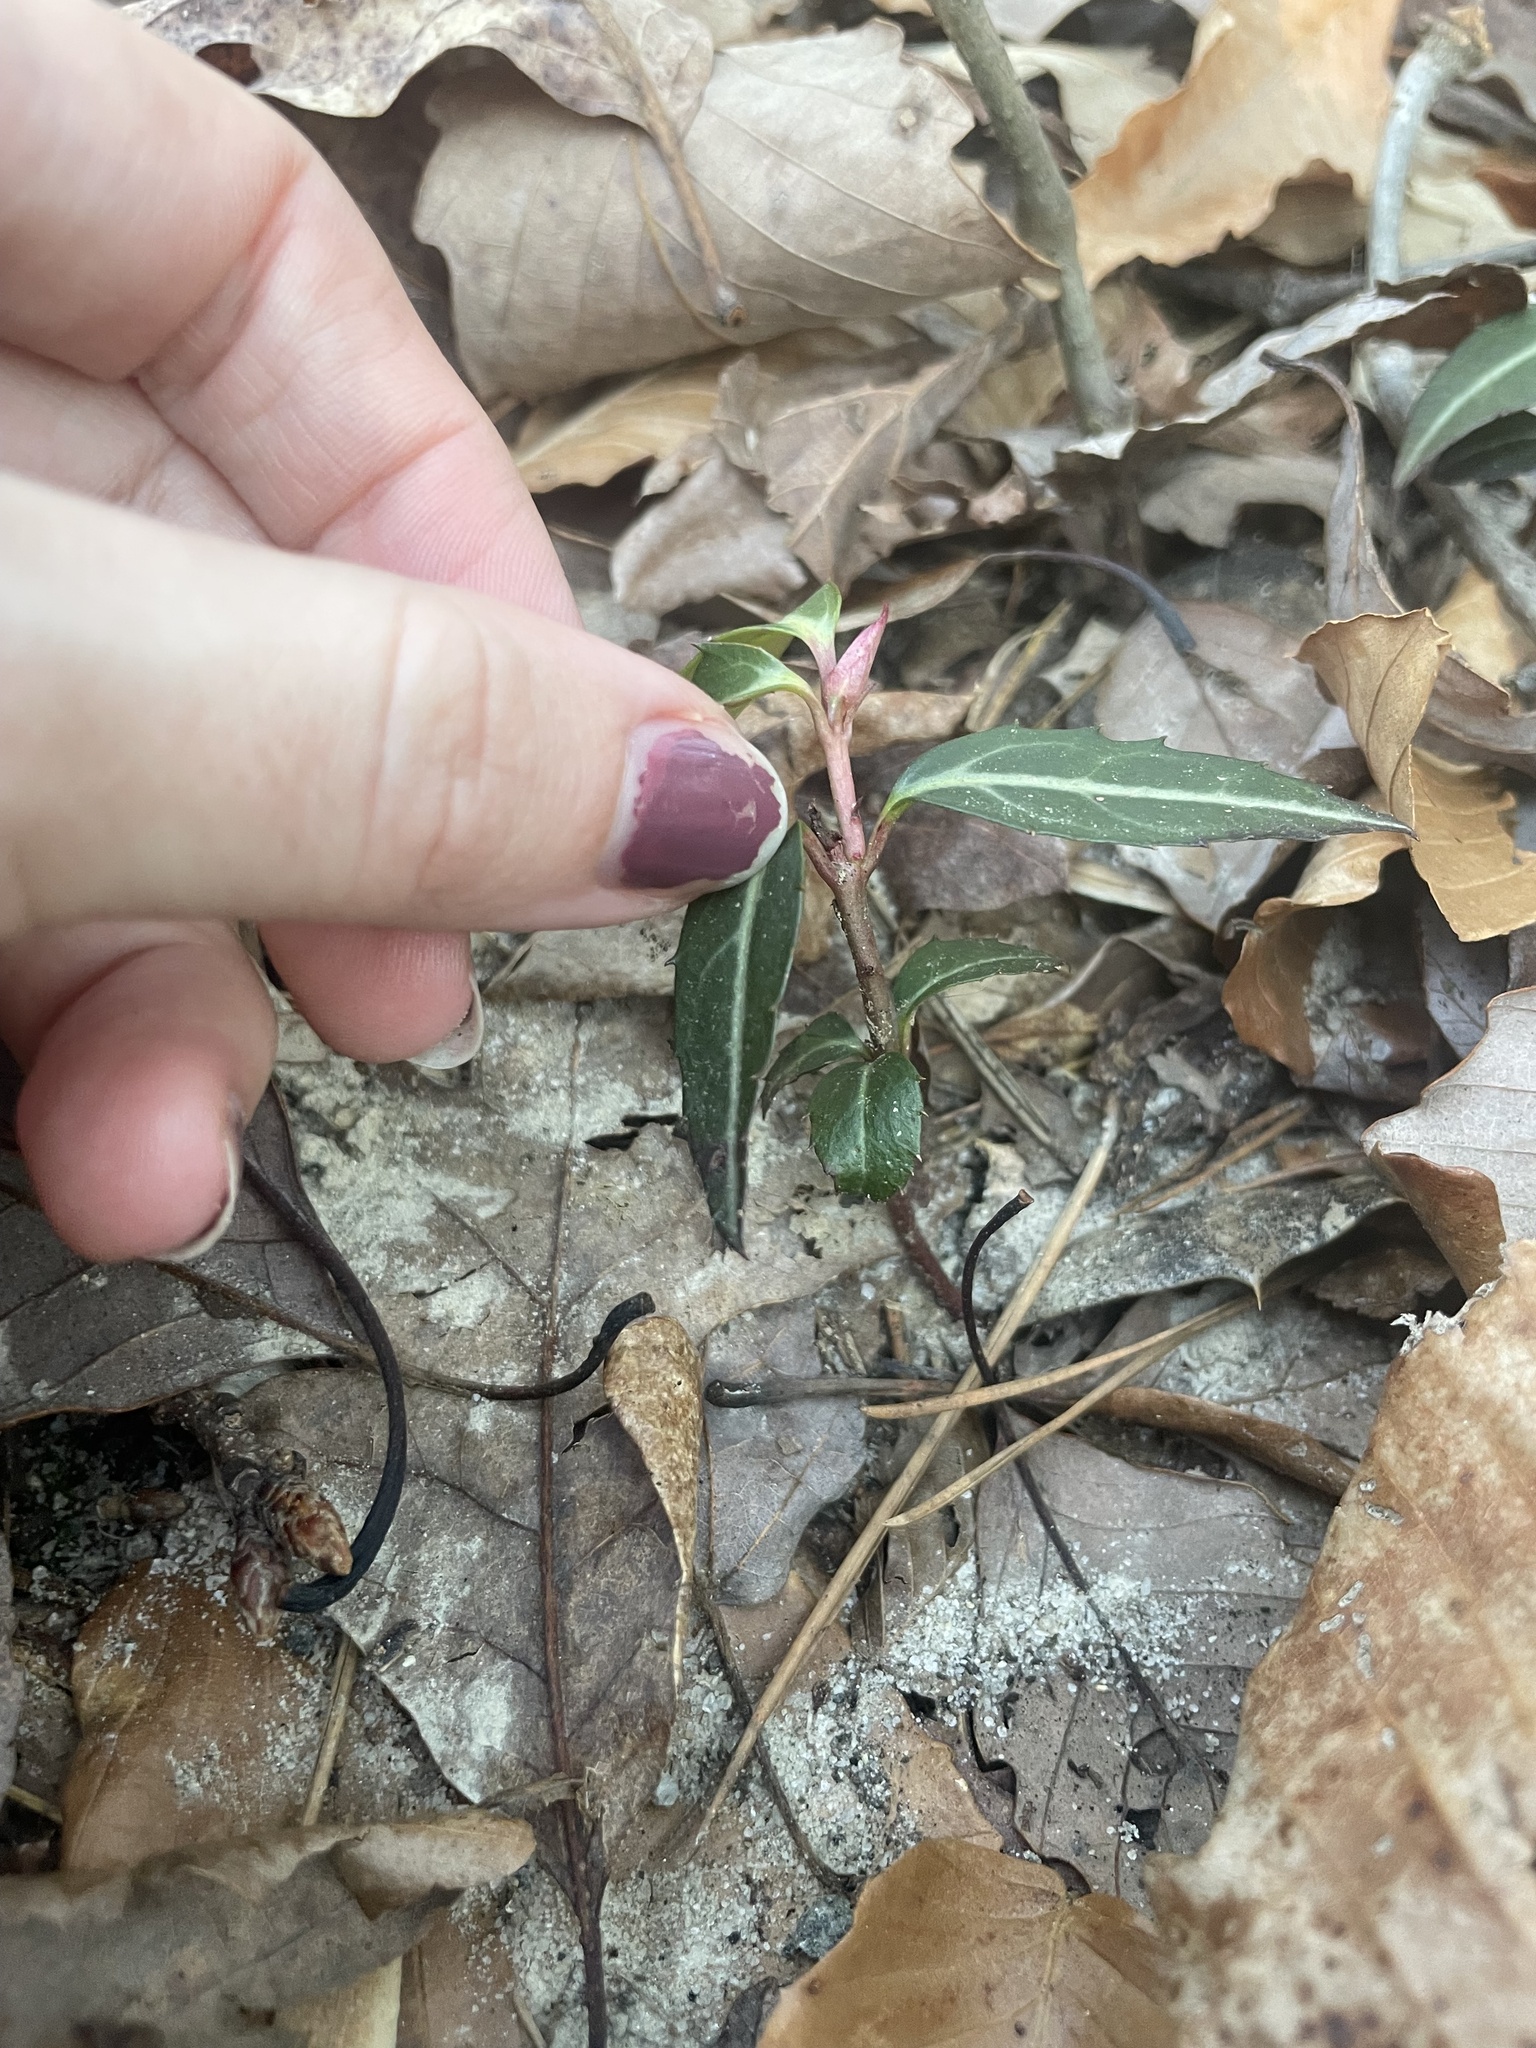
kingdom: Plantae
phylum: Tracheophyta
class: Magnoliopsida
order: Ericales
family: Ericaceae
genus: Chimaphila
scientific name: Chimaphila maculata
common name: Spotted pipsissewa
